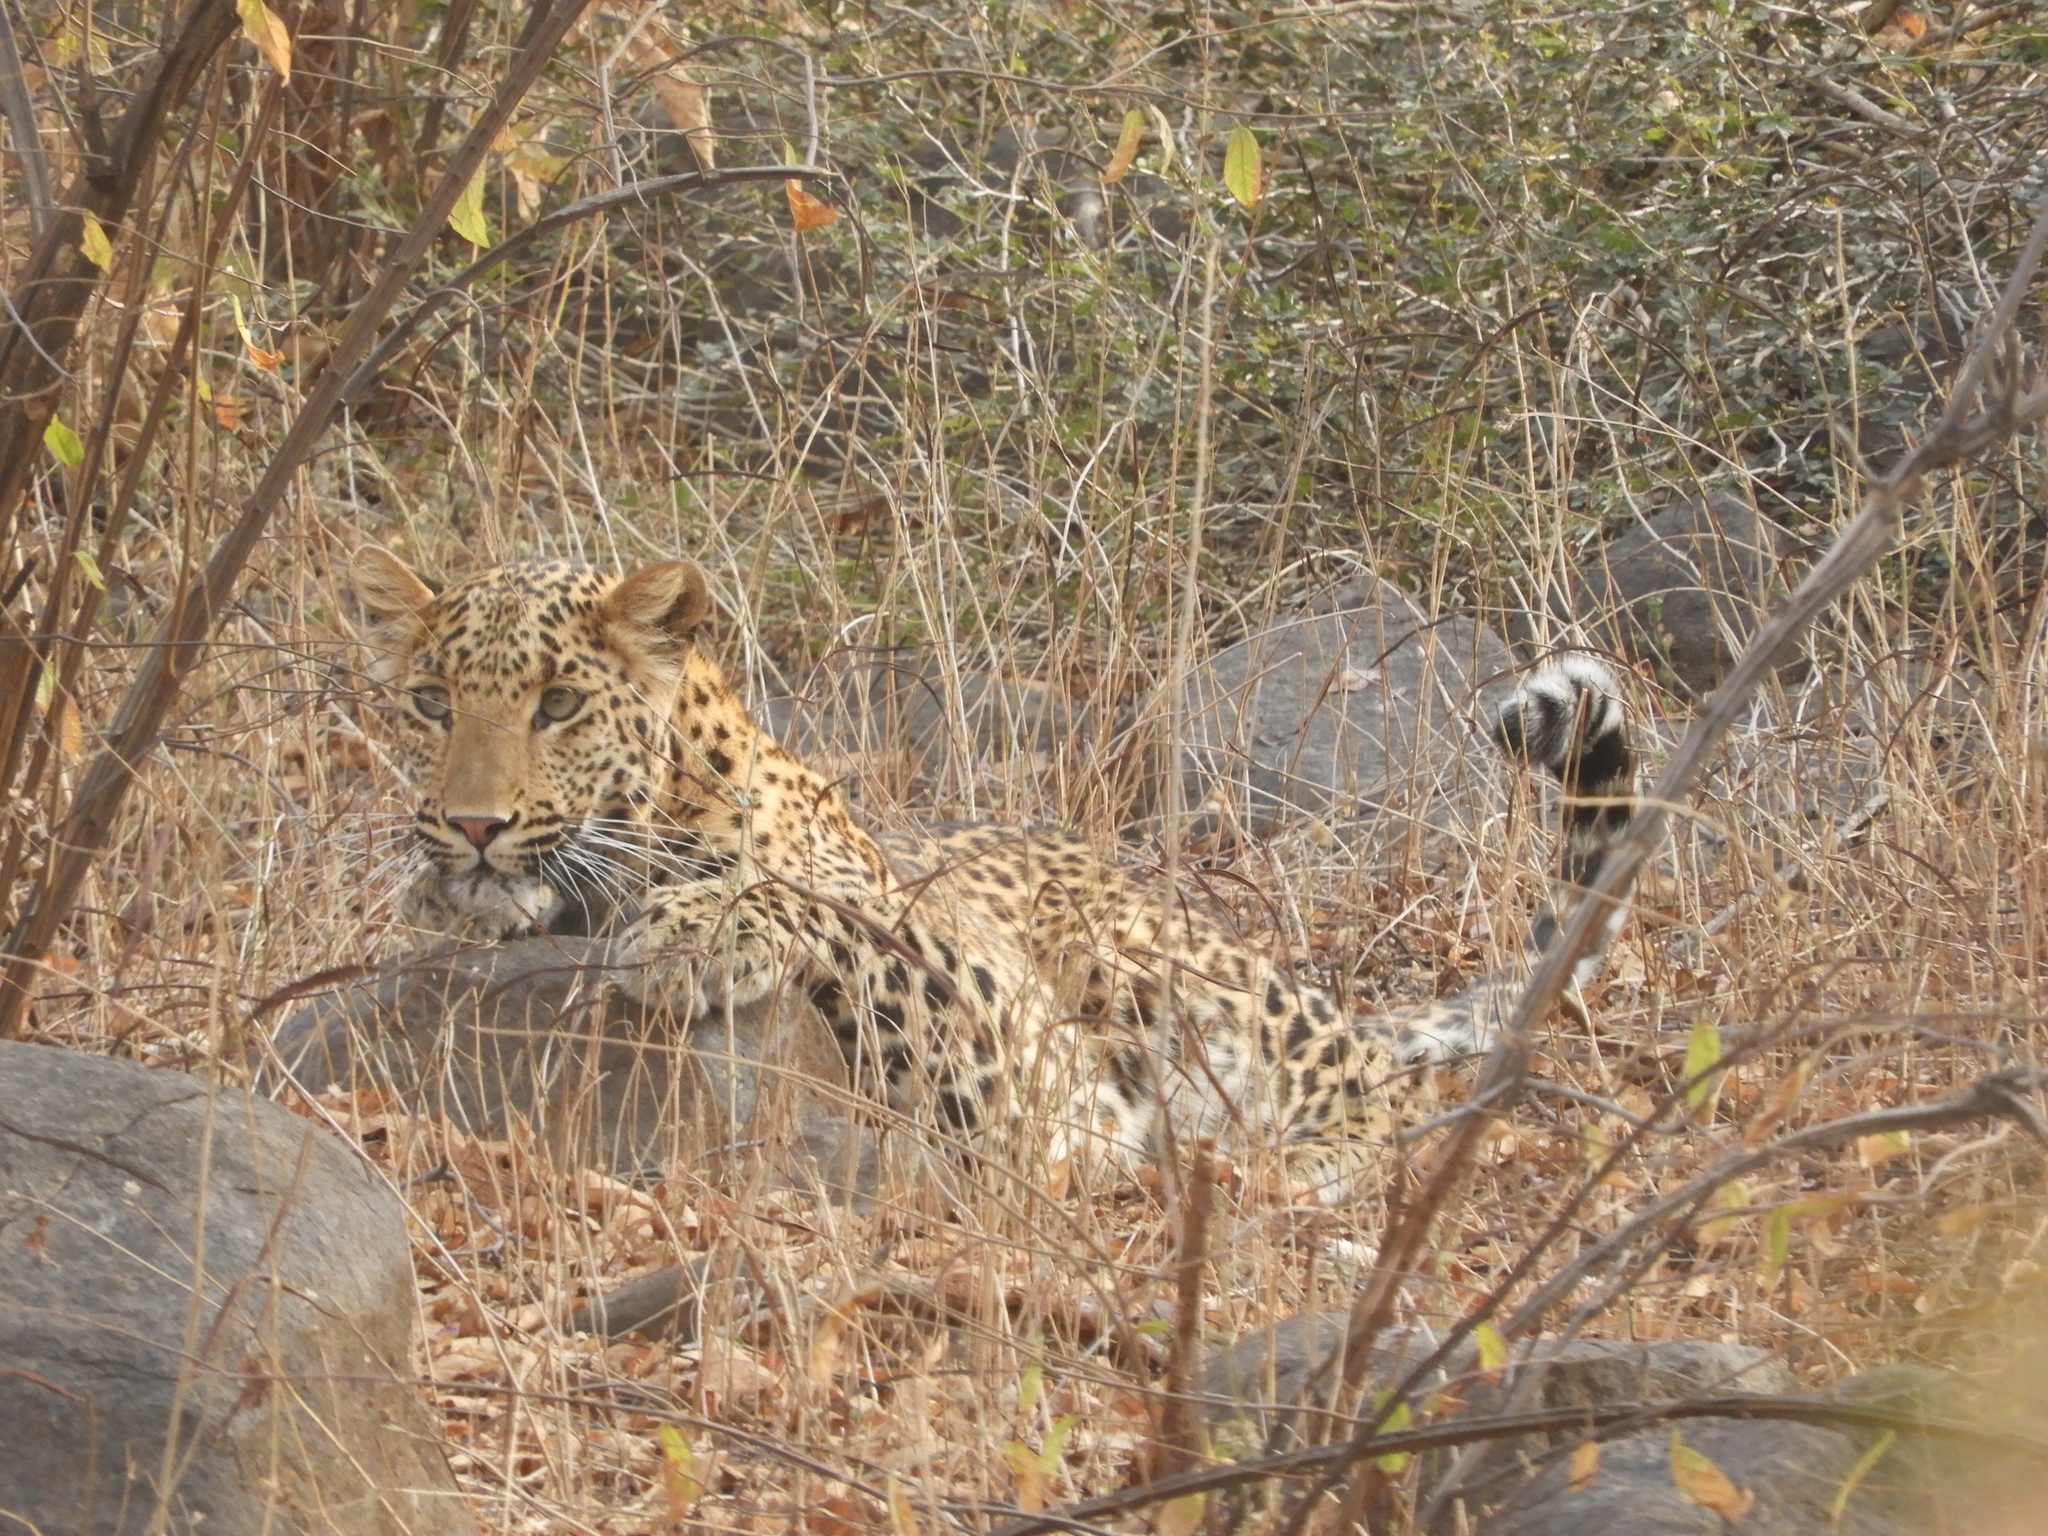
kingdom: Animalia
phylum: Chordata
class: Mammalia
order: Carnivora
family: Felidae
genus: Panthera
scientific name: Panthera pardus
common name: Leopard
